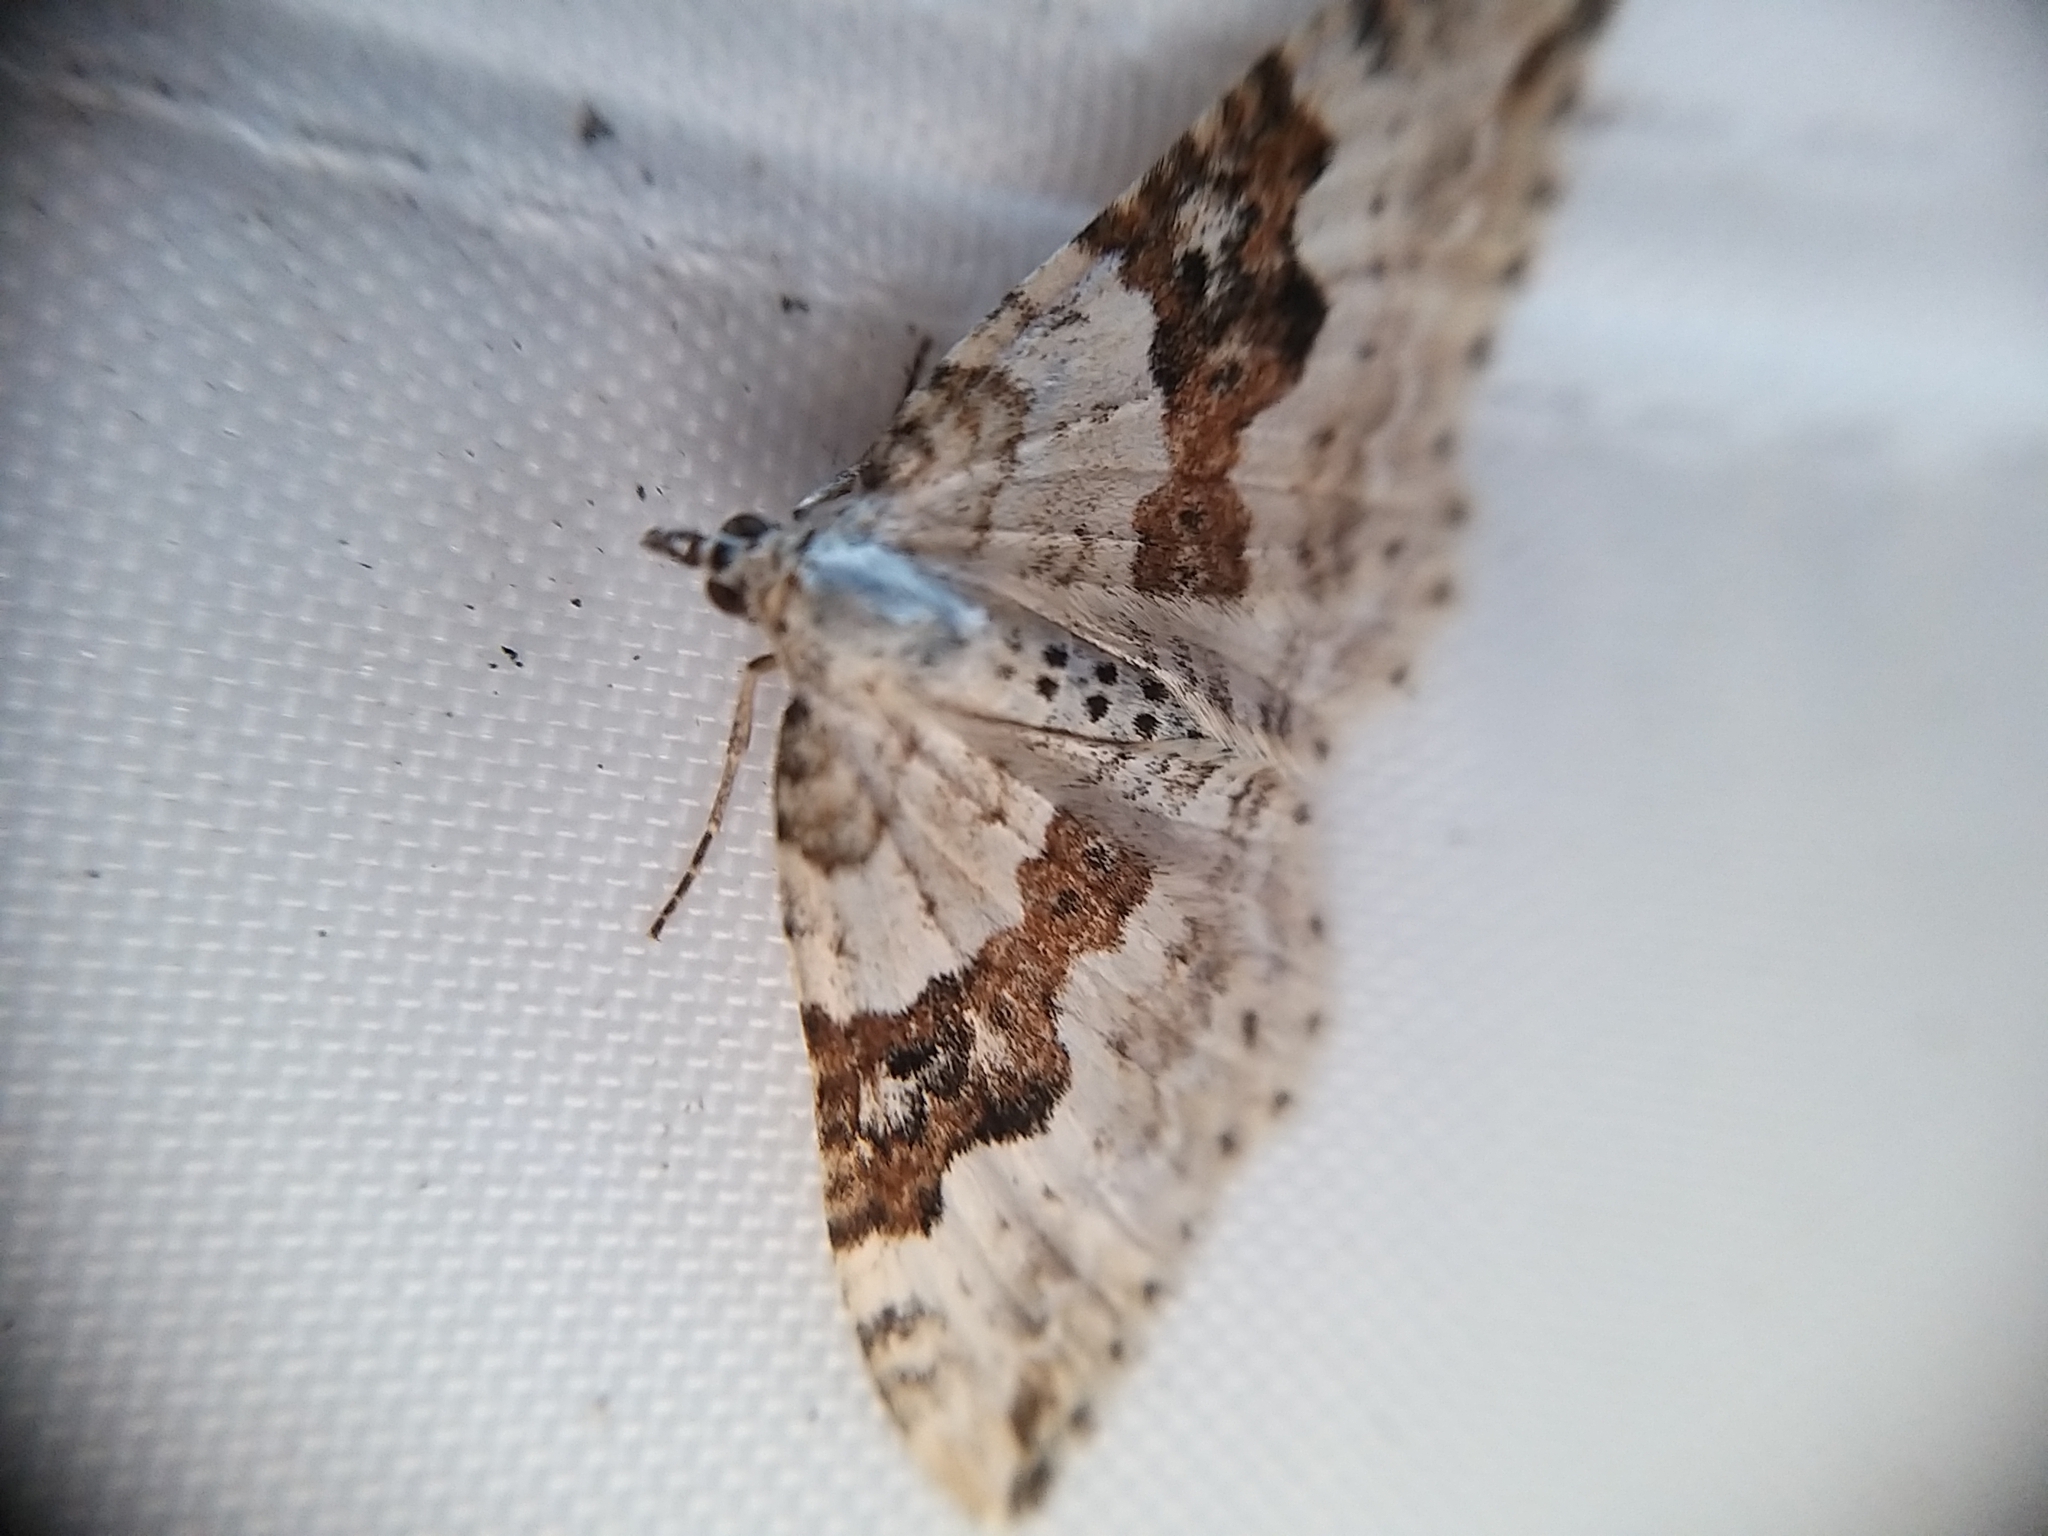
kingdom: Animalia
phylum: Arthropoda
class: Insecta
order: Lepidoptera
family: Geometridae
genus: Xanthorhoe
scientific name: Xanthorhoe montanata
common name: Silver-ground carpet
